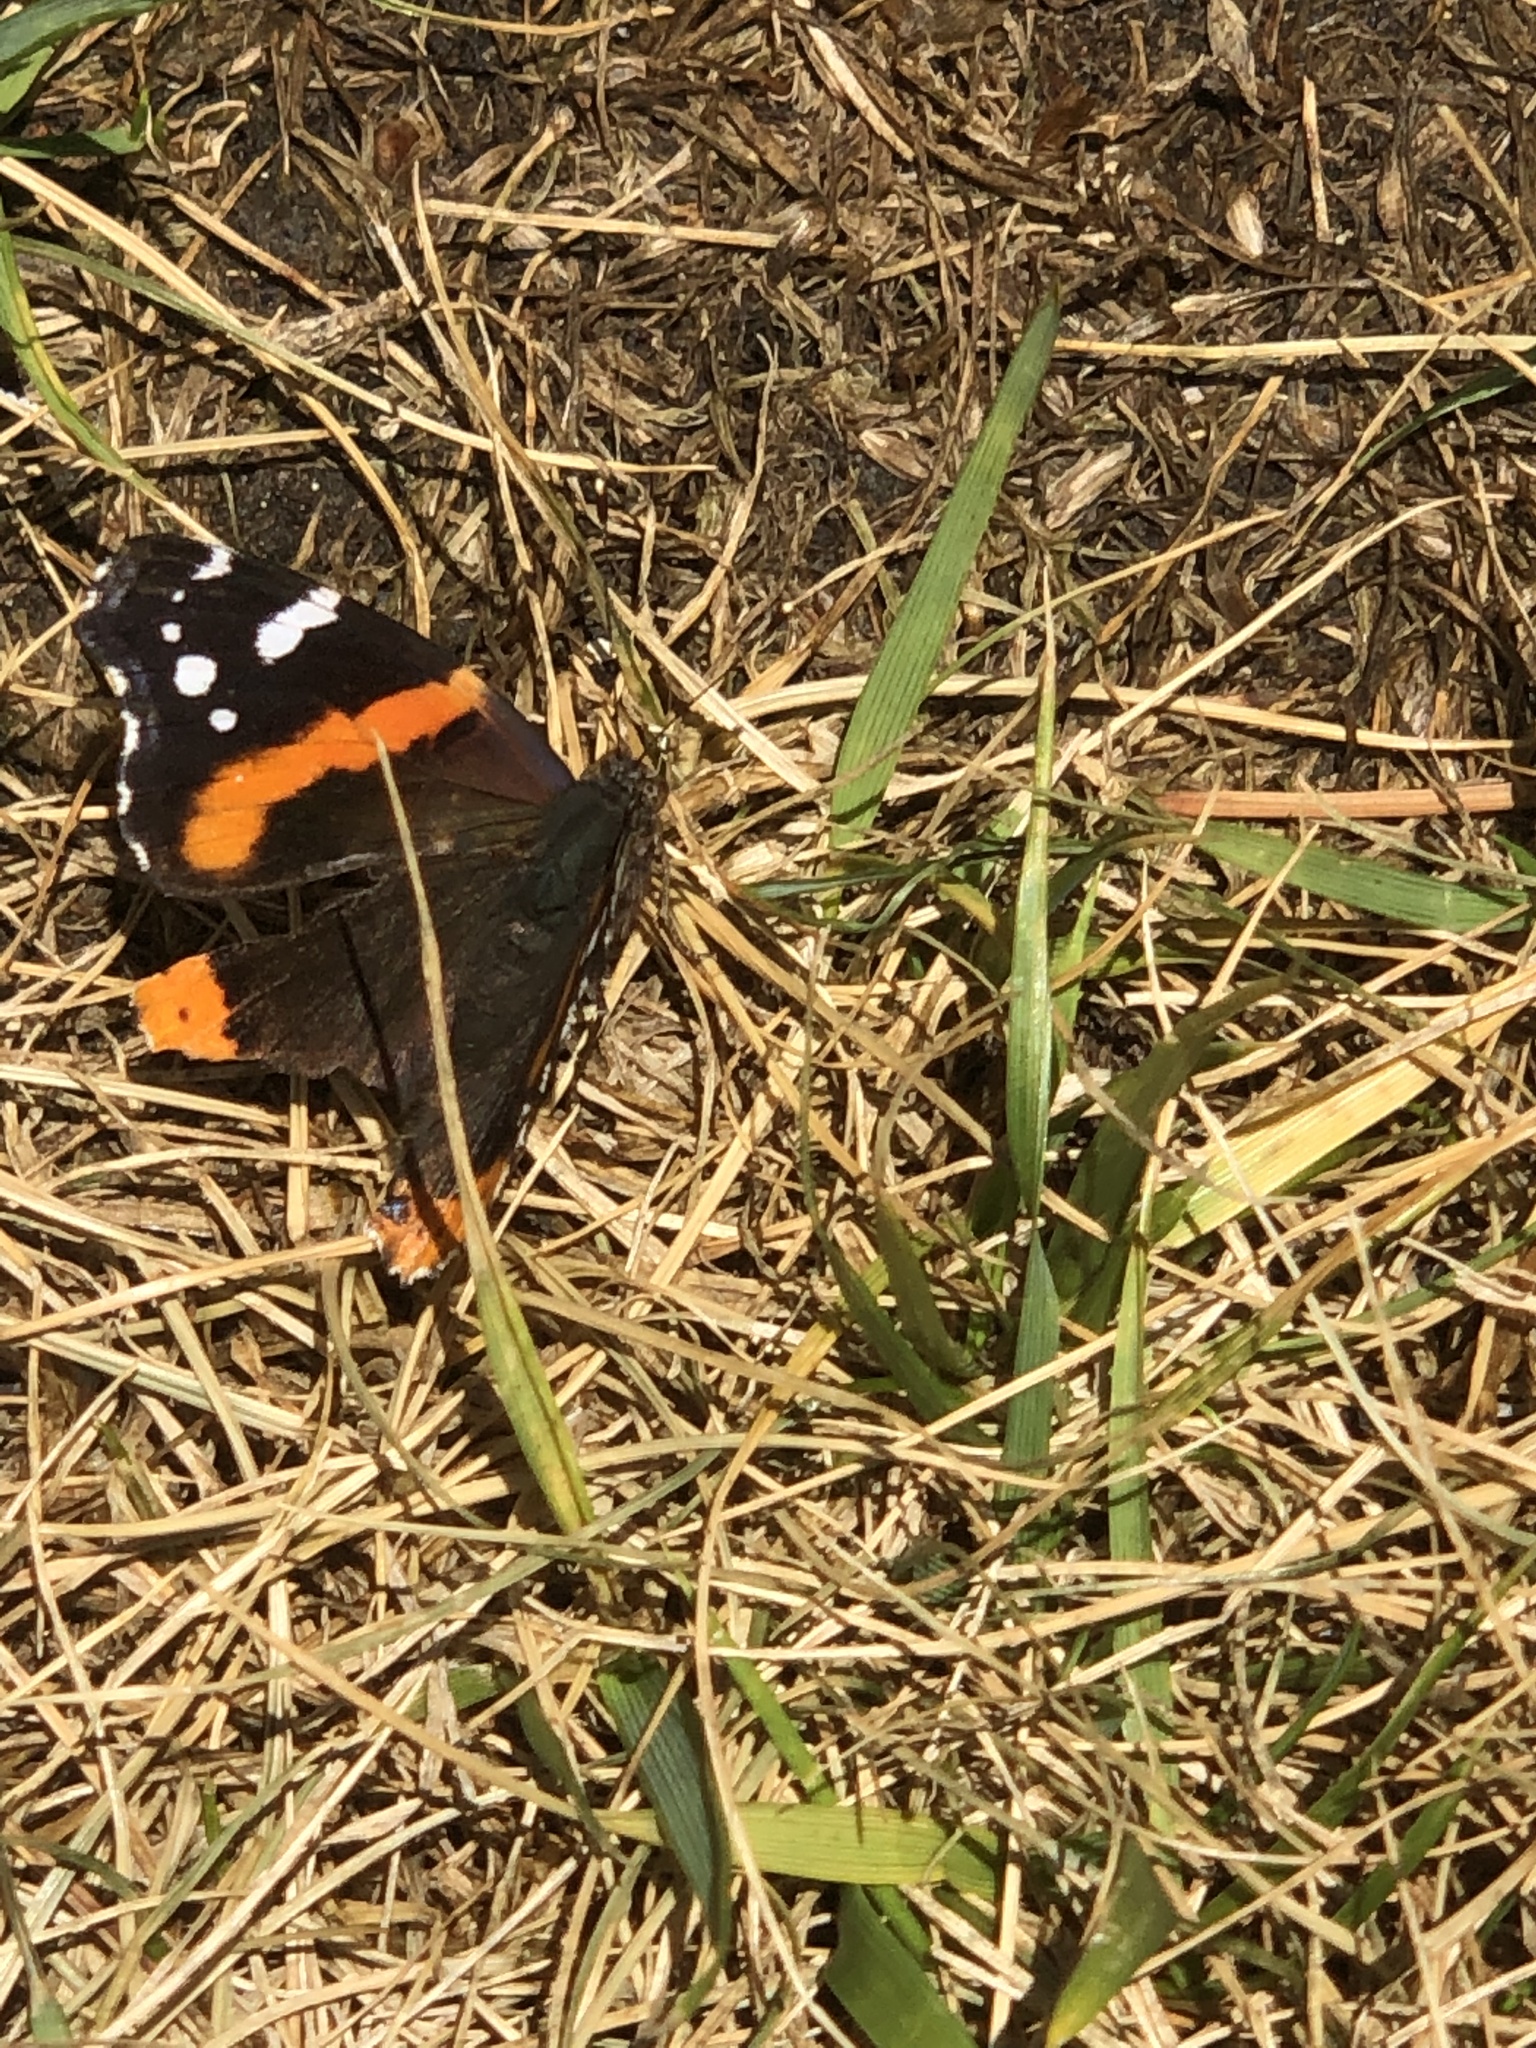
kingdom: Animalia
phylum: Arthropoda
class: Insecta
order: Lepidoptera
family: Nymphalidae
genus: Vanessa
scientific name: Vanessa atalanta
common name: Red admiral
